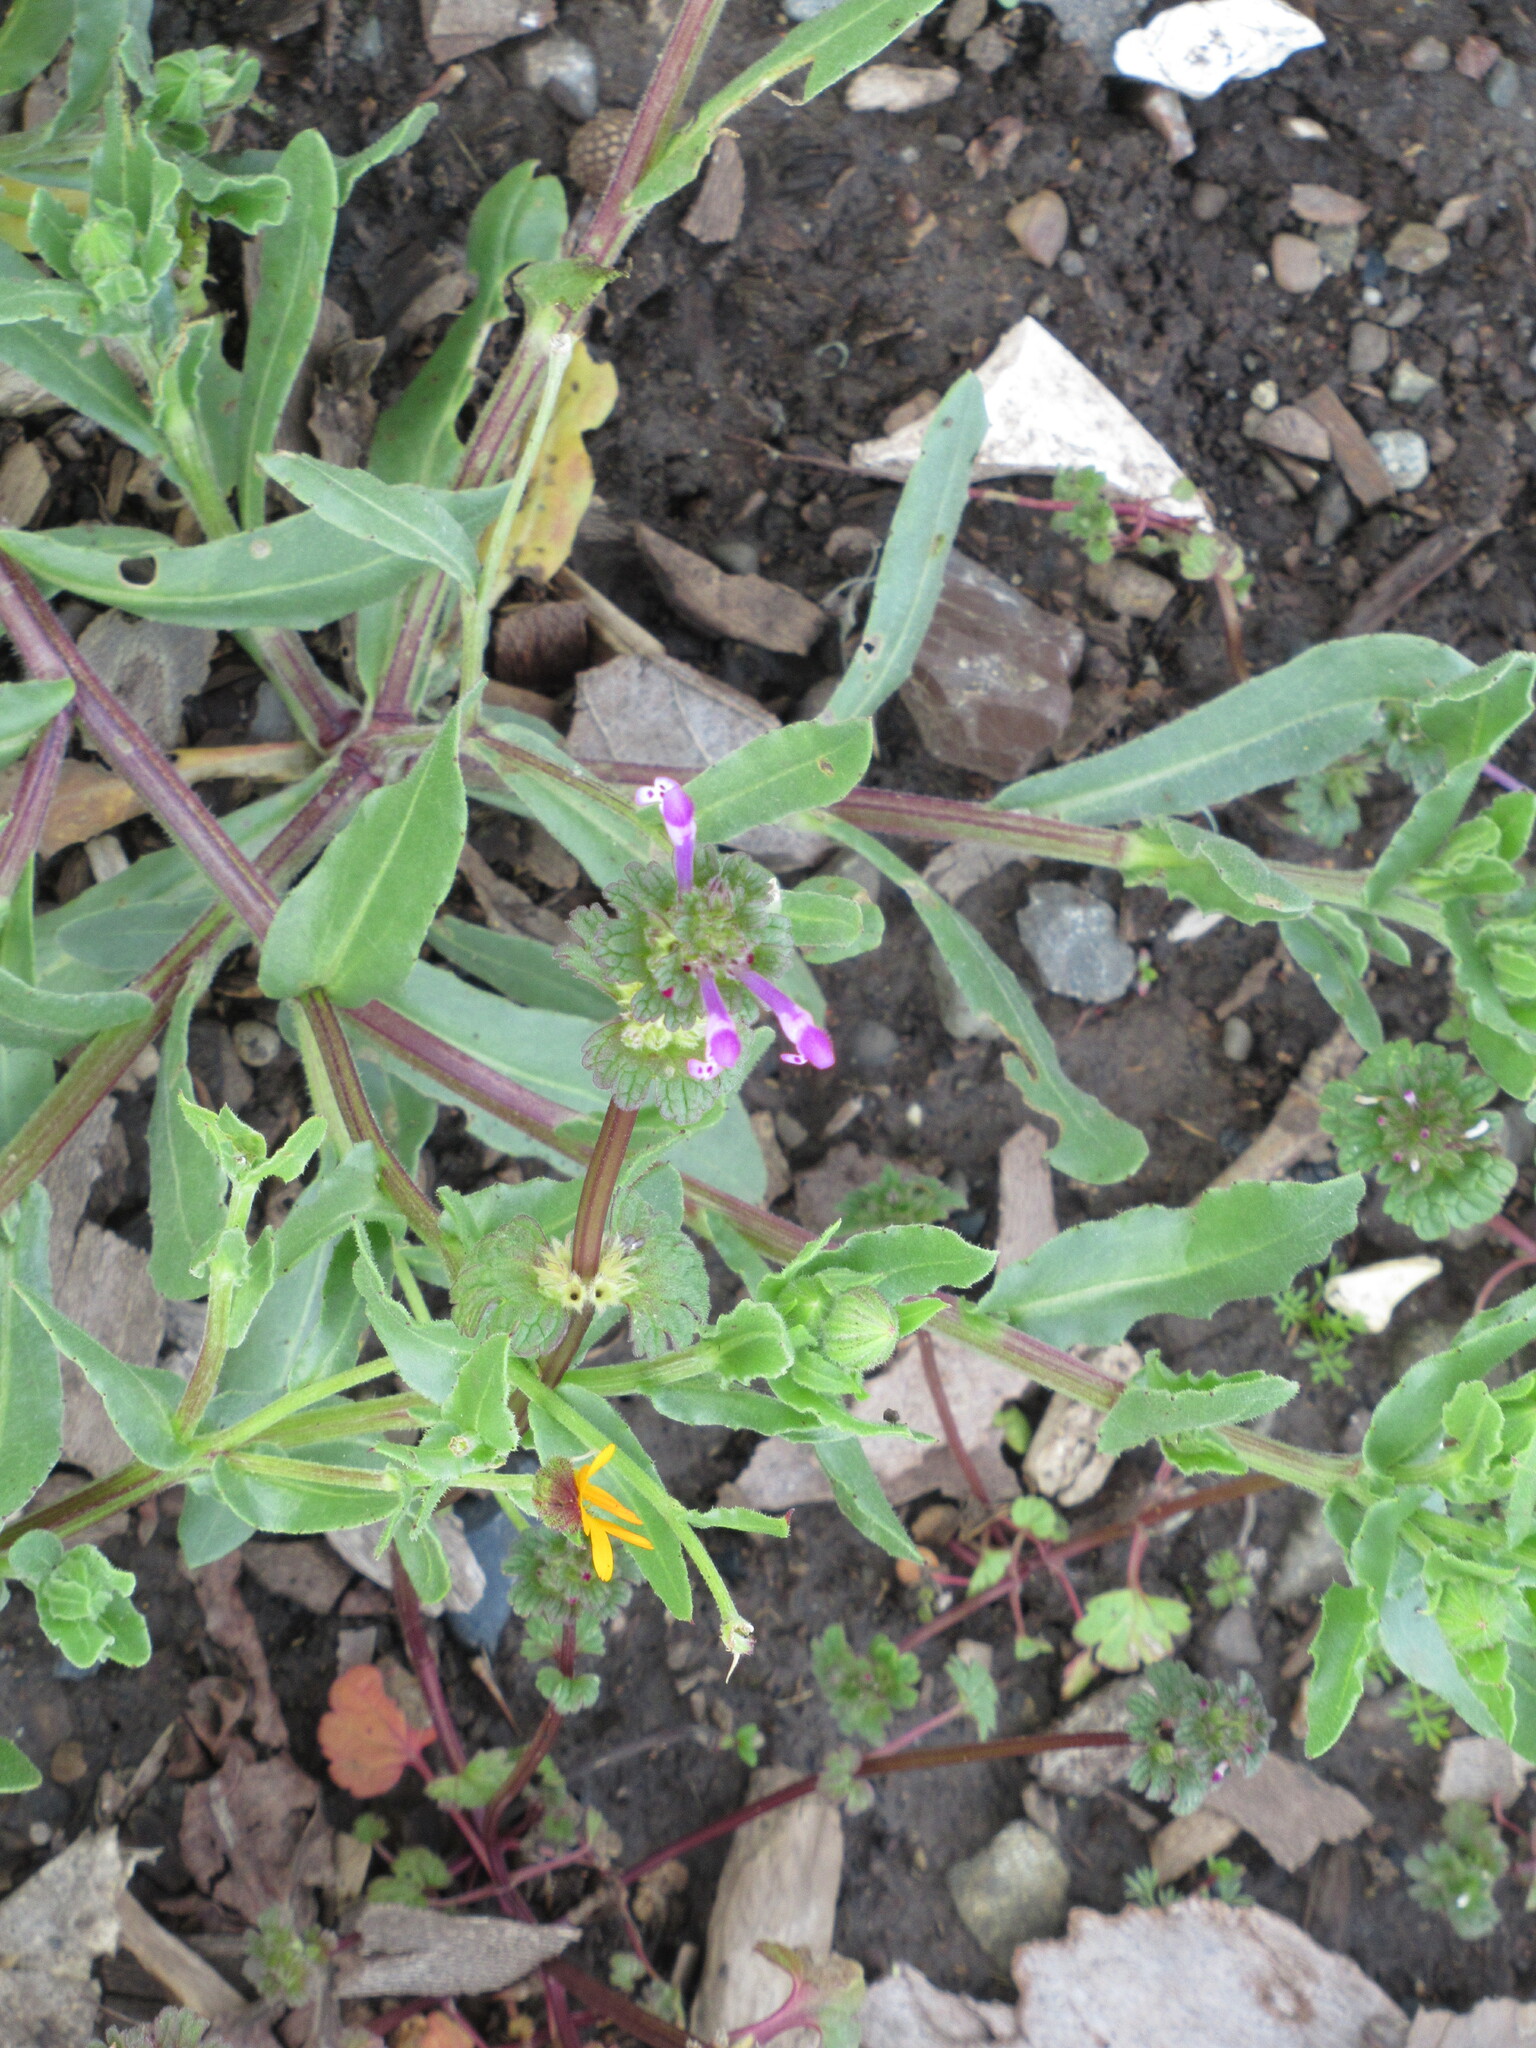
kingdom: Plantae
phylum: Tracheophyta
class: Magnoliopsida
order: Lamiales
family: Lamiaceae
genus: Lamium
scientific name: Lamium amplexicaule
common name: Henbit dead-nettle
